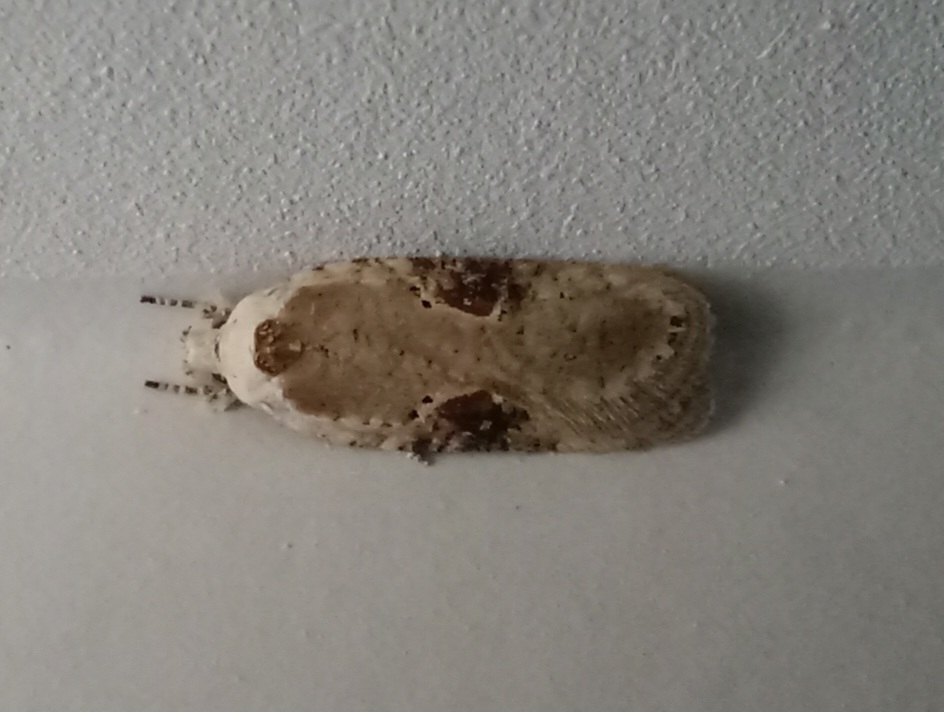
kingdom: Animalia
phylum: Arthropoda
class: Insecta
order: Lepidoptera
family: Depressariidae
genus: Agonopterix
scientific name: Agonopterix alstroemeriana
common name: Moth
